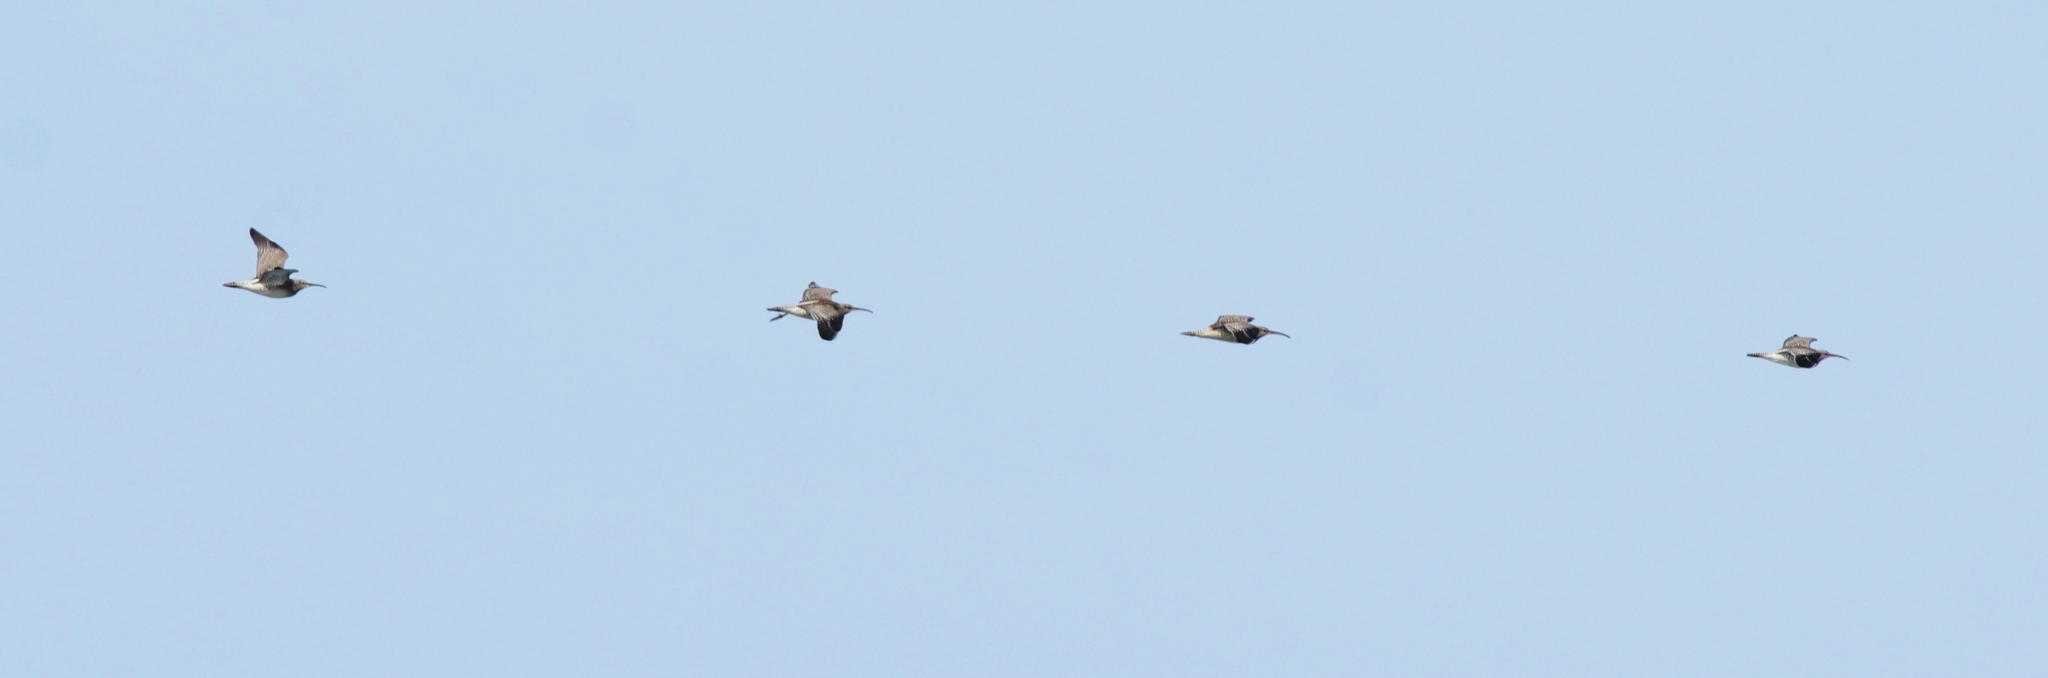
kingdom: Animalia
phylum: Chordata
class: Aves
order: Charadriiformes
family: Scolopacidae
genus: Numenius
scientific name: Numenius phaeopus
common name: Whimbrel
